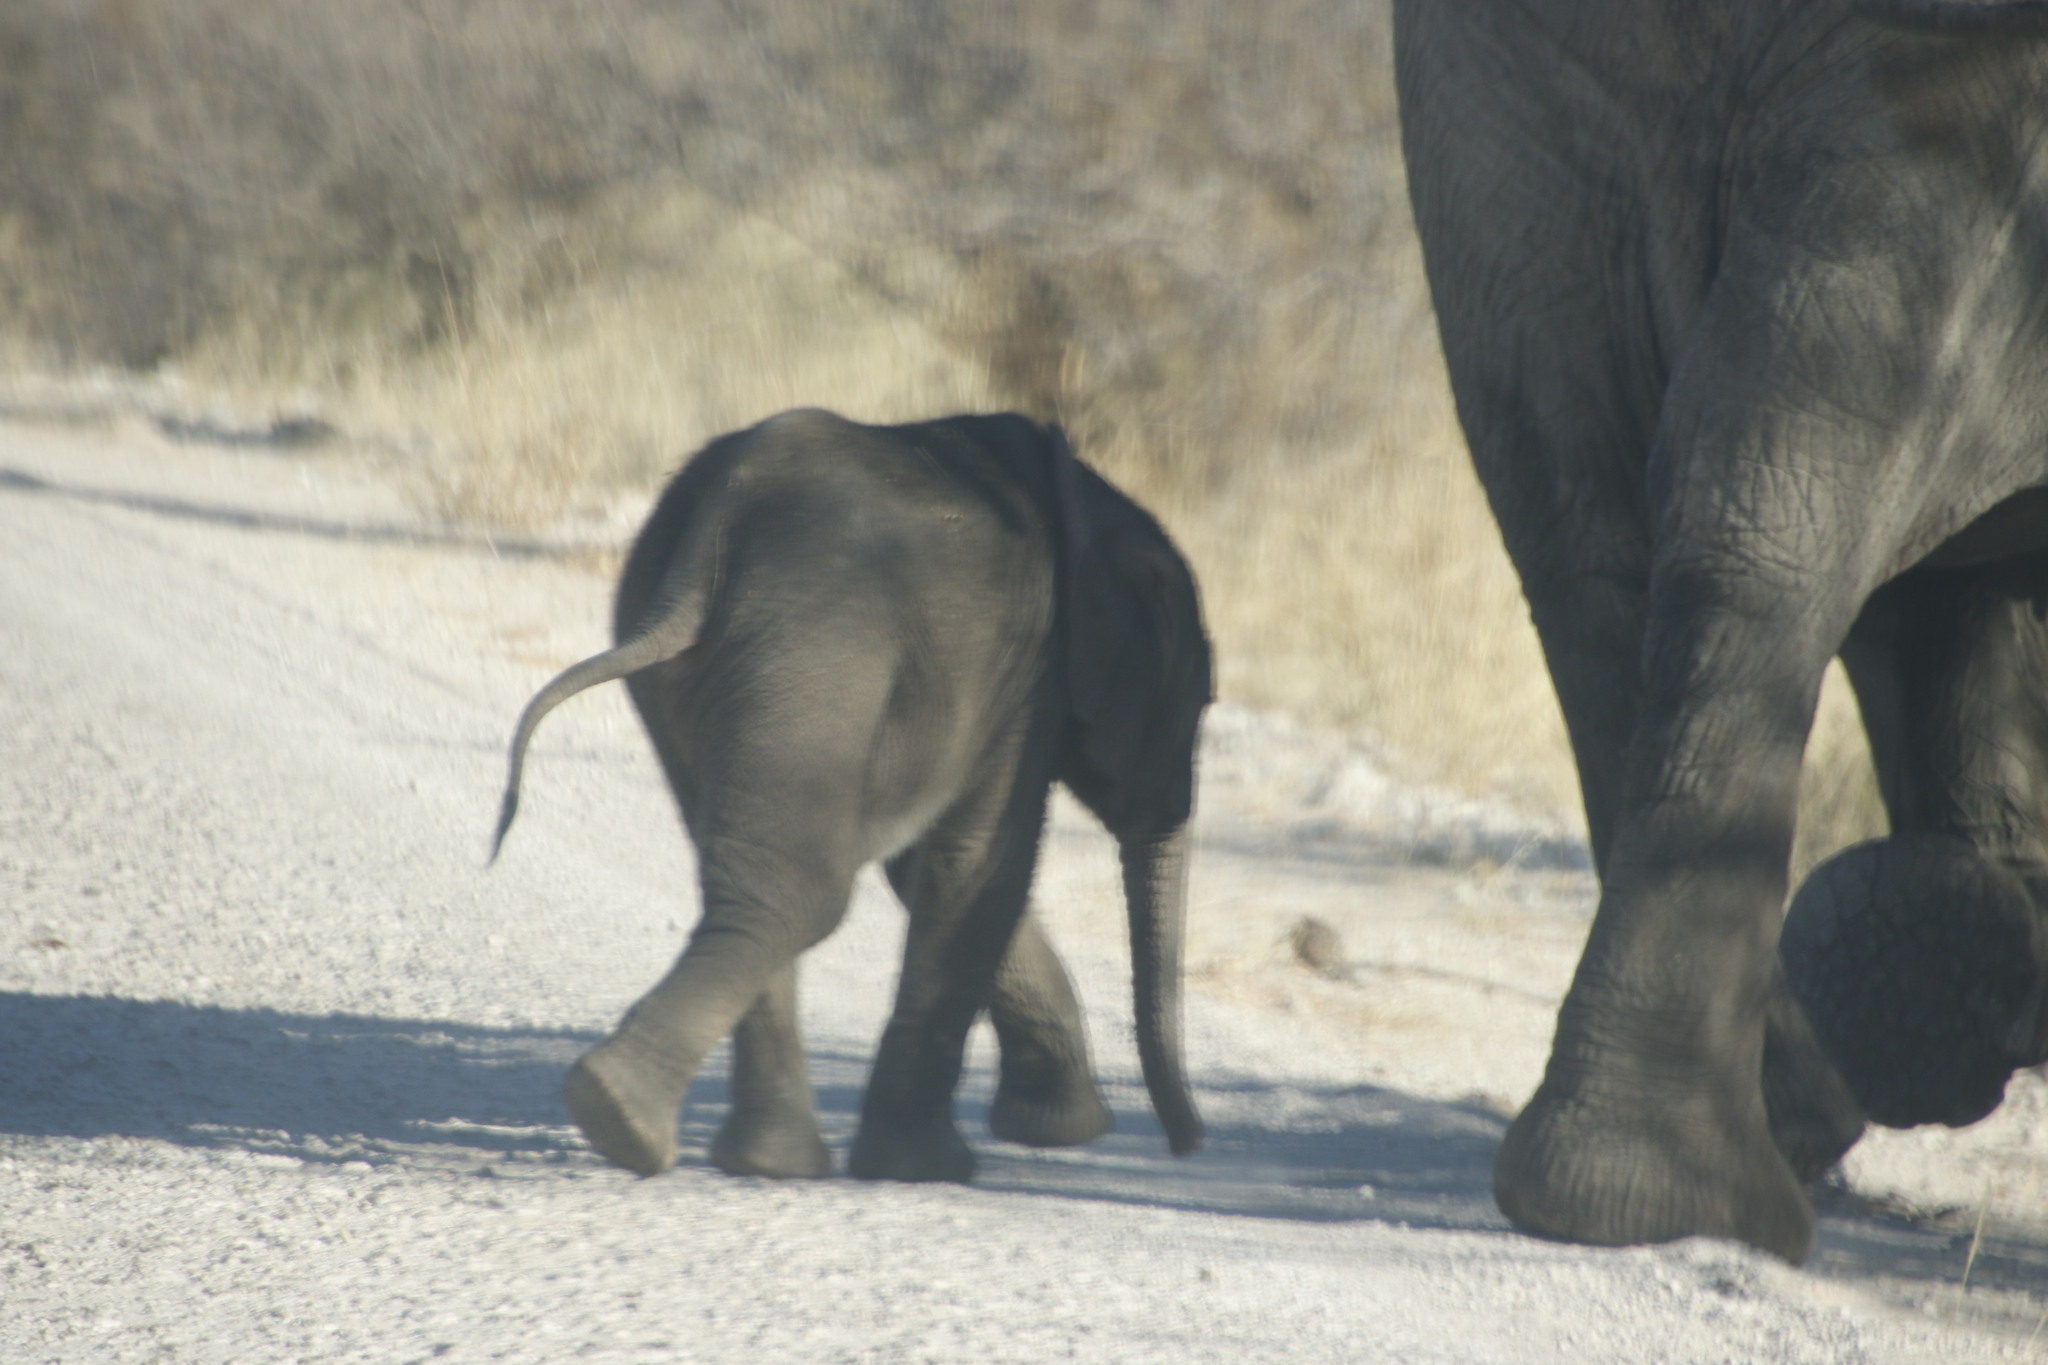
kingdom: Animalia
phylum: Chordata
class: Mammalia
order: Proboscidea
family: Elephantidae
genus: Loxodonta
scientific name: Loxodonta africana
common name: African elephant
